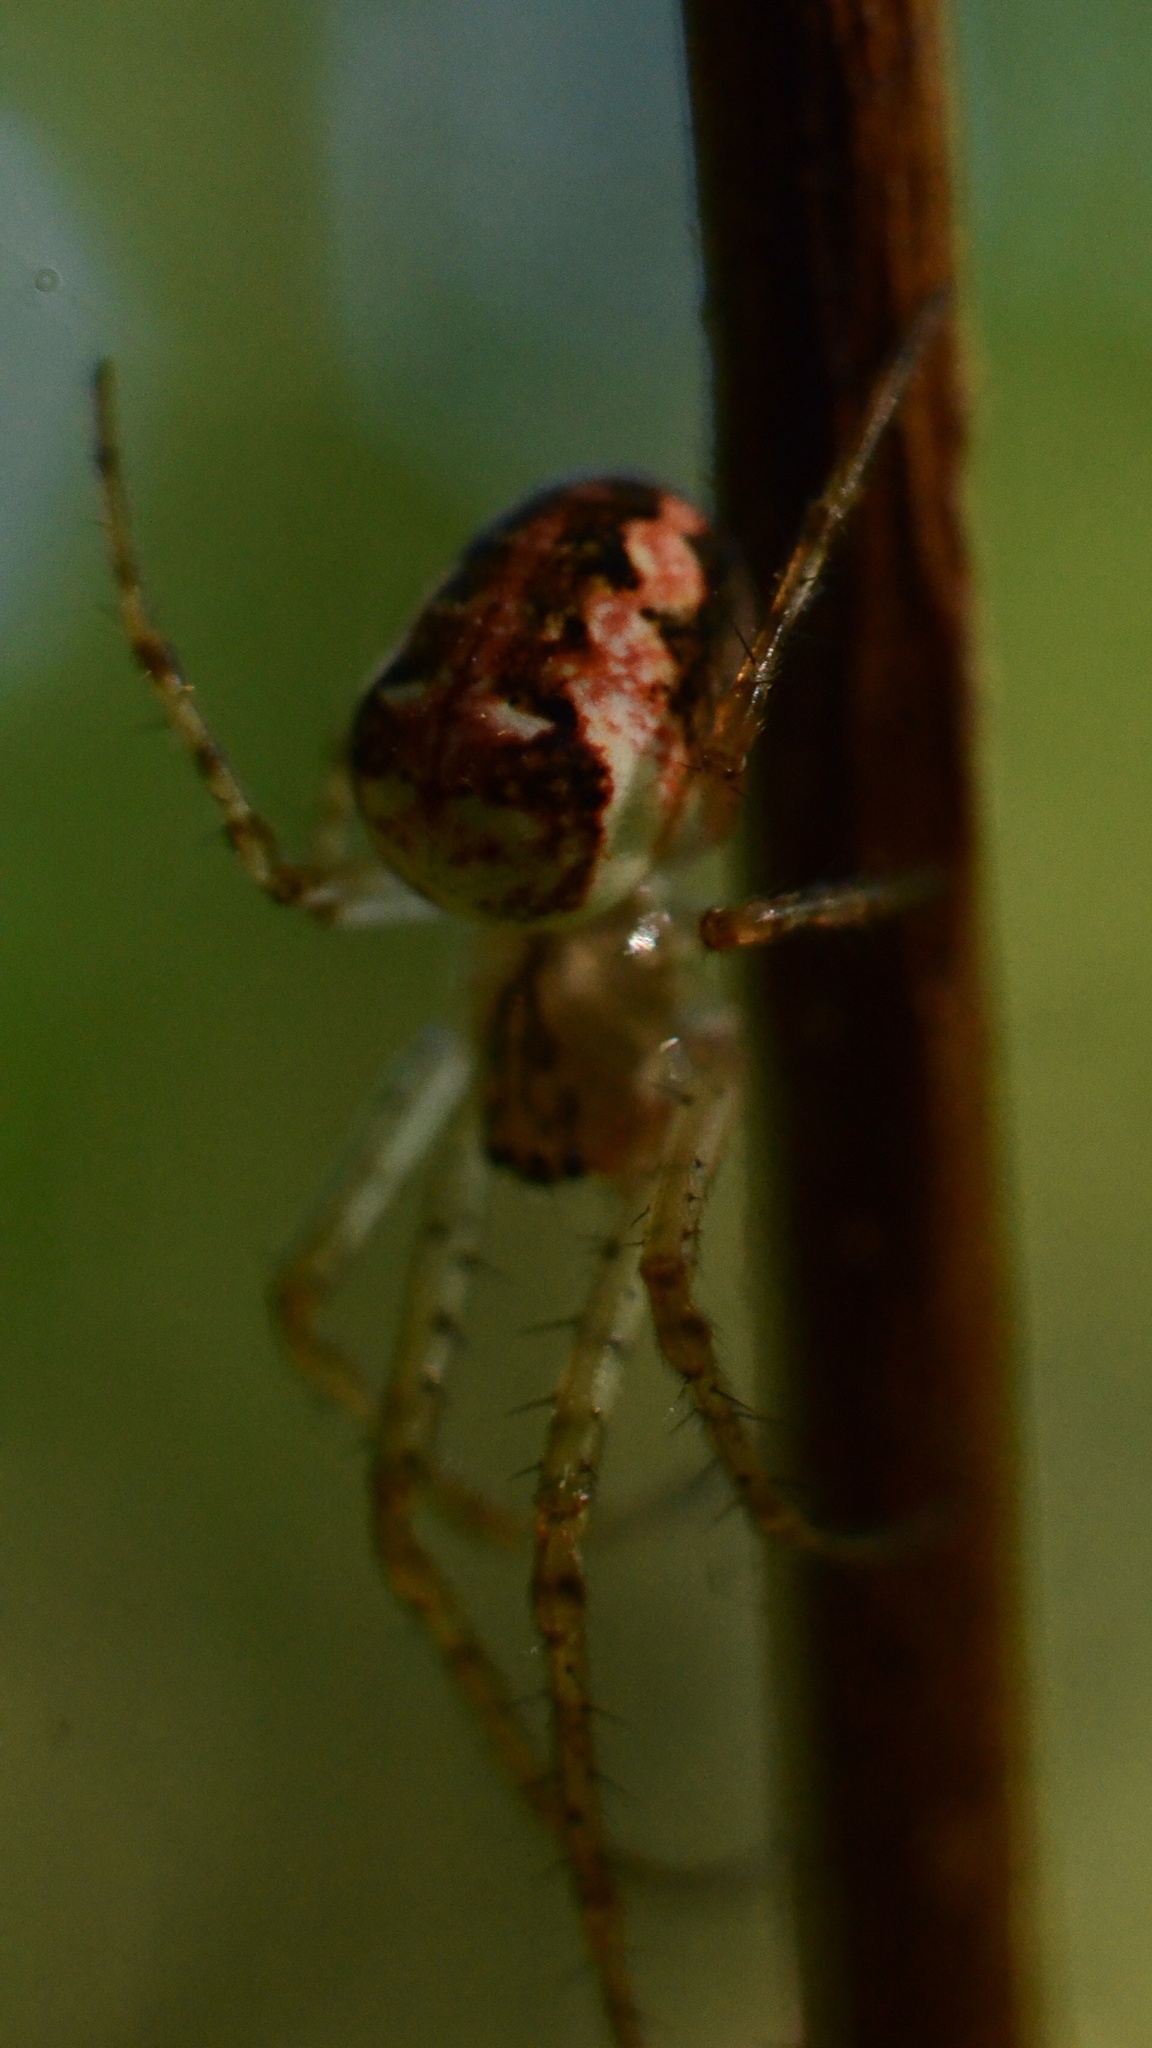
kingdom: Animalia
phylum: Arthropoda
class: Arachnida
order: Araneae
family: Tetragnathidae
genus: Metellina
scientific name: Metellina
